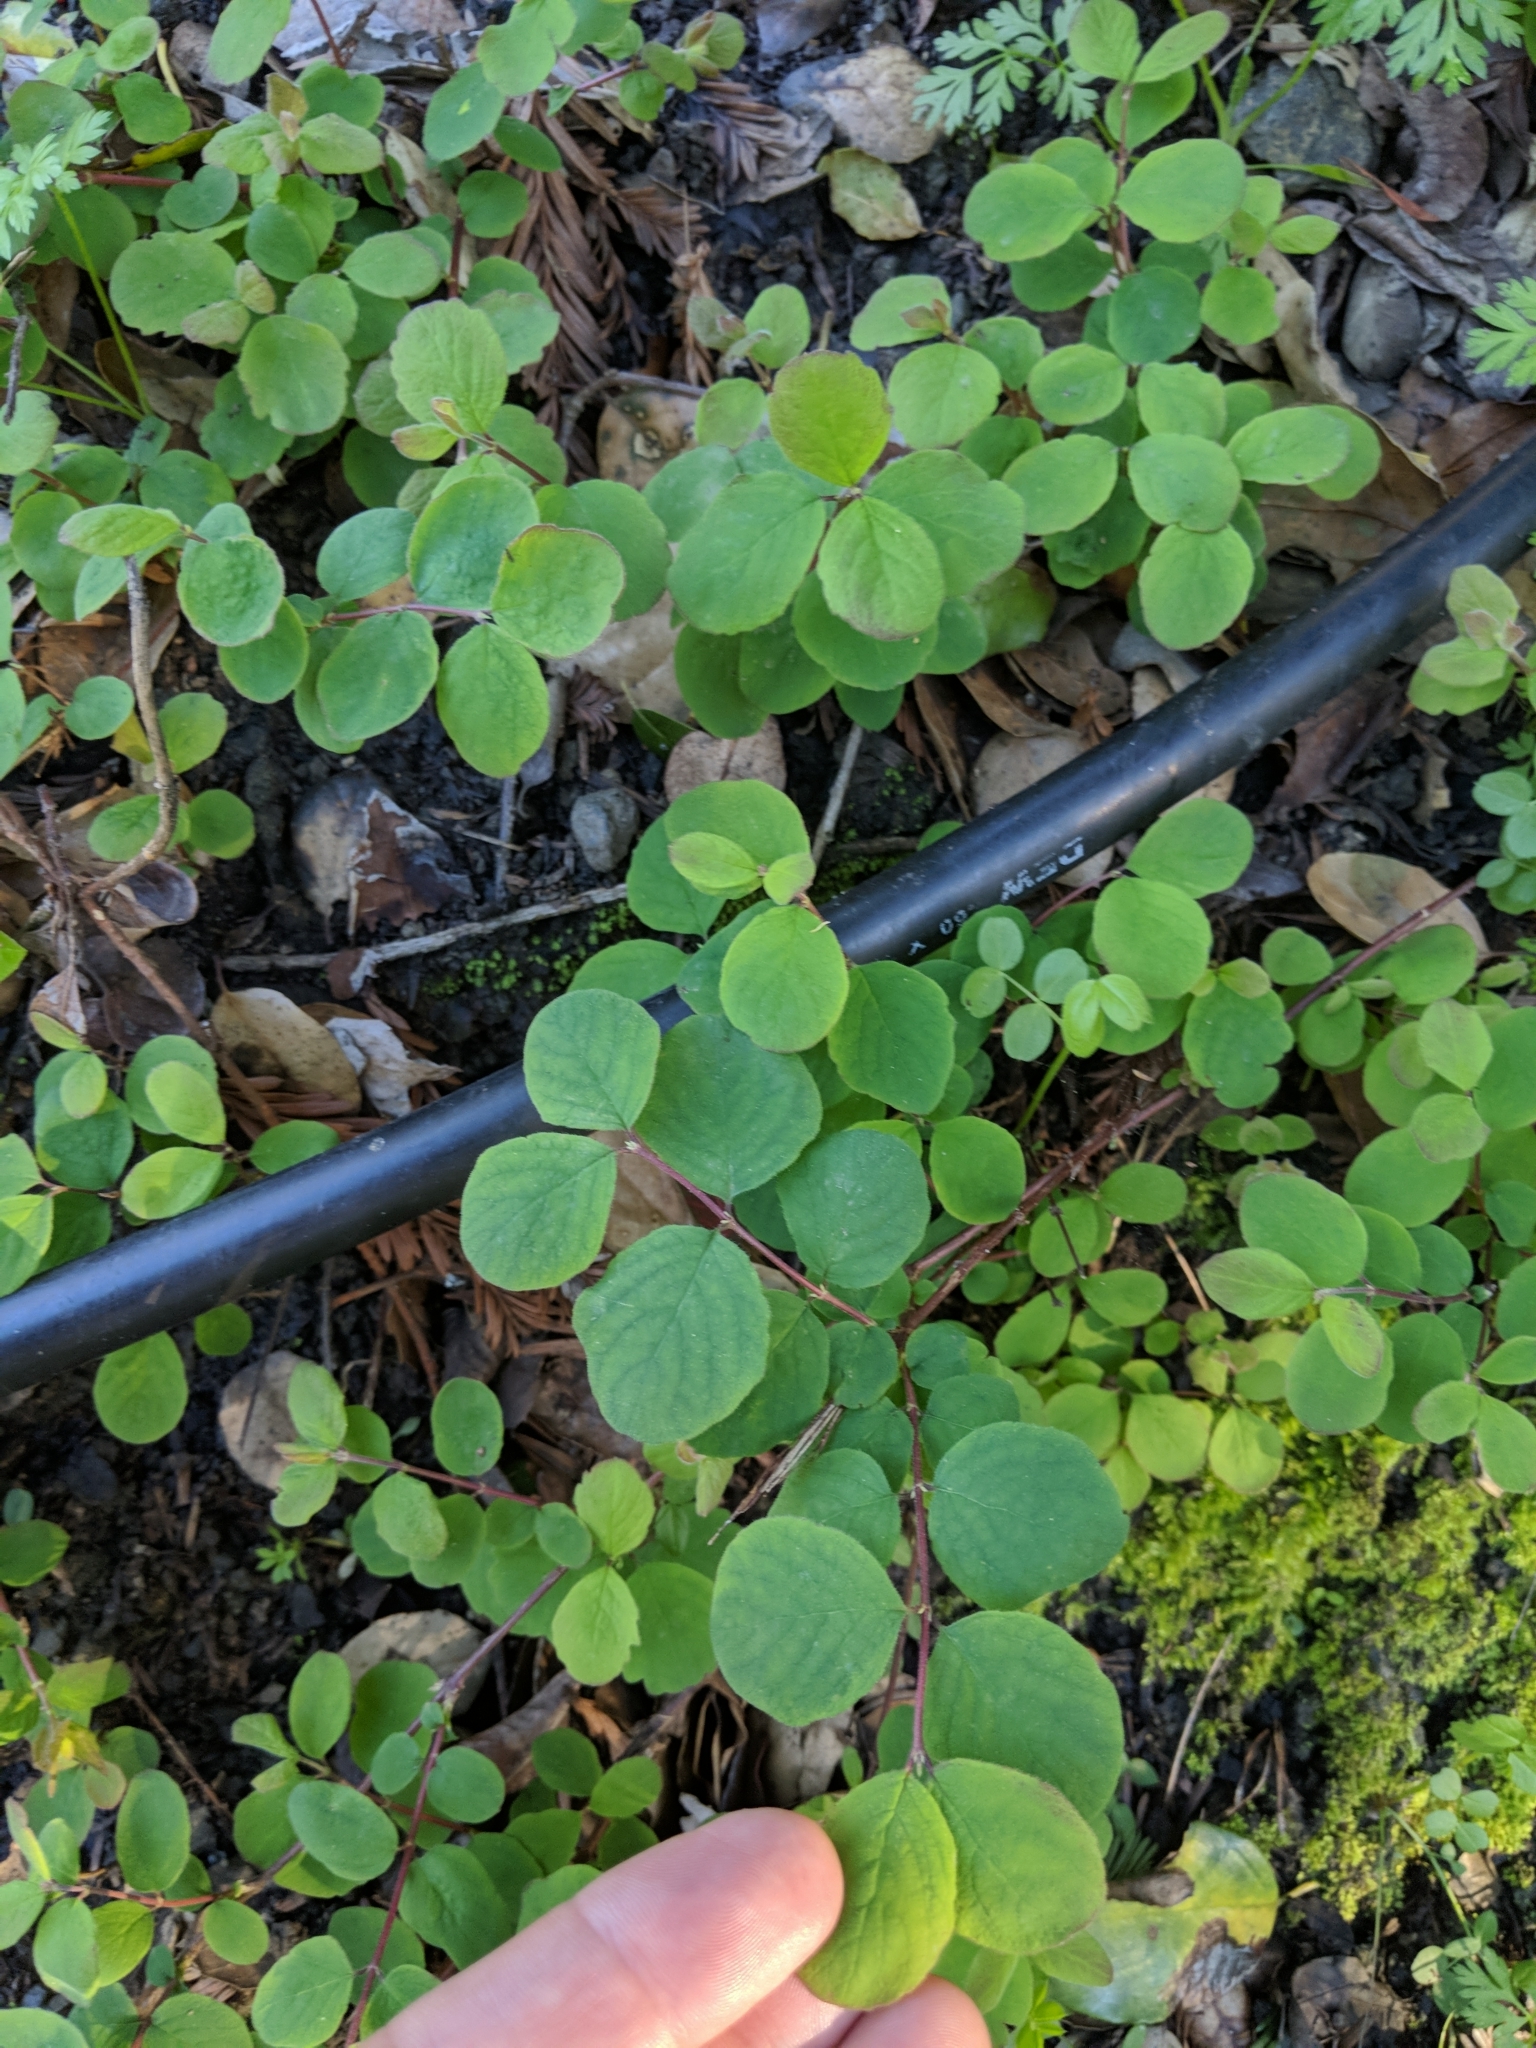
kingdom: Plantae
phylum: Tracheophyta
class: Magnoliopsida
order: Dipsacales
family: Caprifoliaceae
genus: Symphoricarpos
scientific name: Symphoricarpos albus
